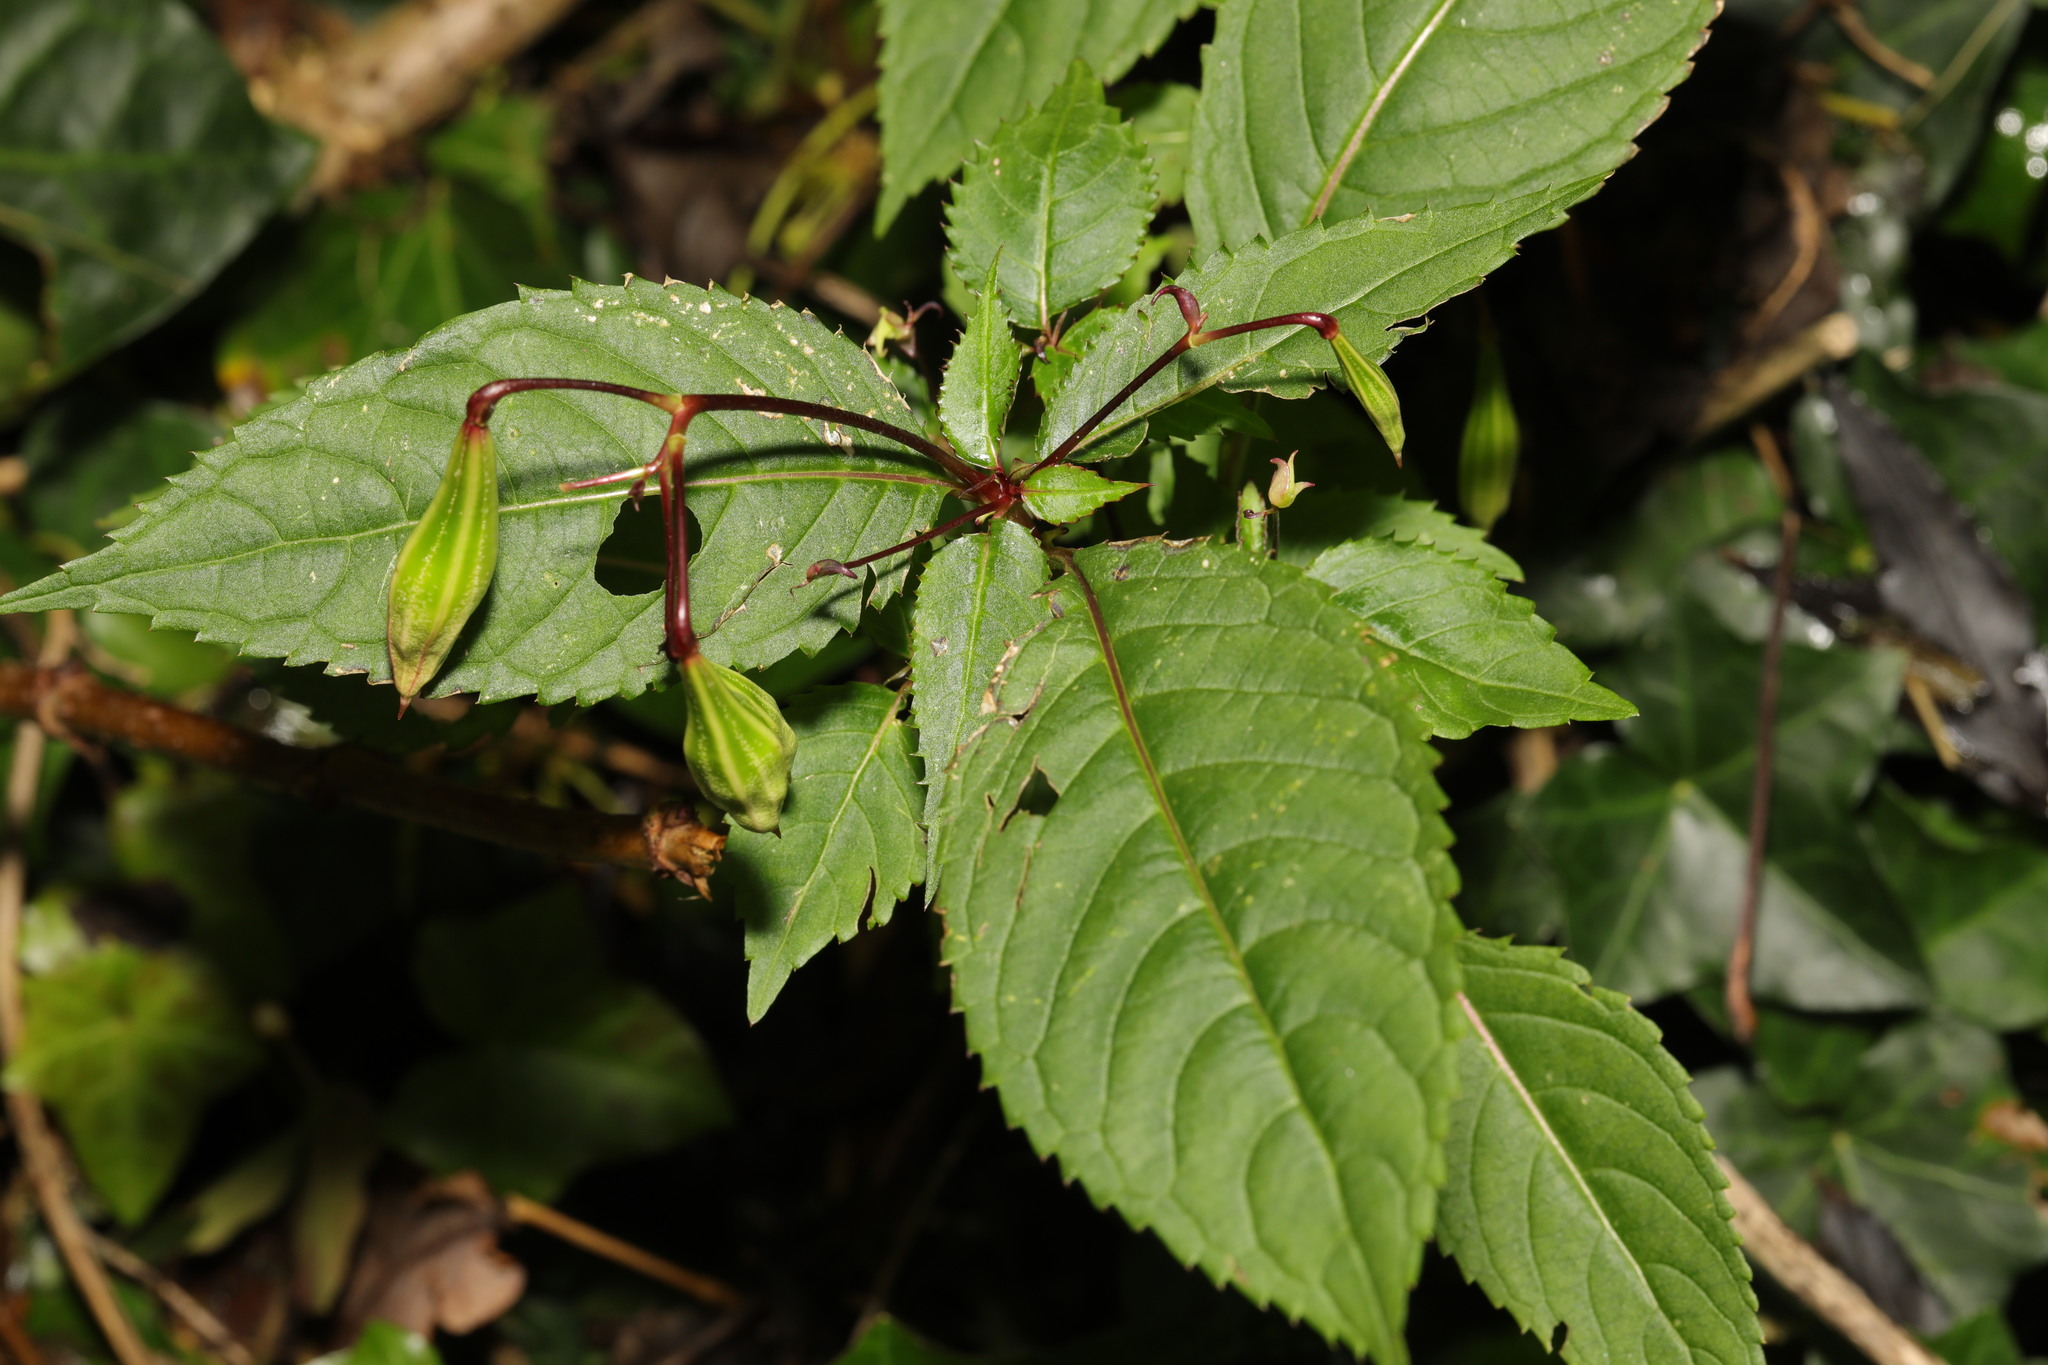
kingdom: Plantae
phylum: Tracheophyta
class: Magnoliopsida
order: Ericales
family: Balsaminaceae
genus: Impatiens
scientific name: Impatiens glandulifera
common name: Himalayan balsam
